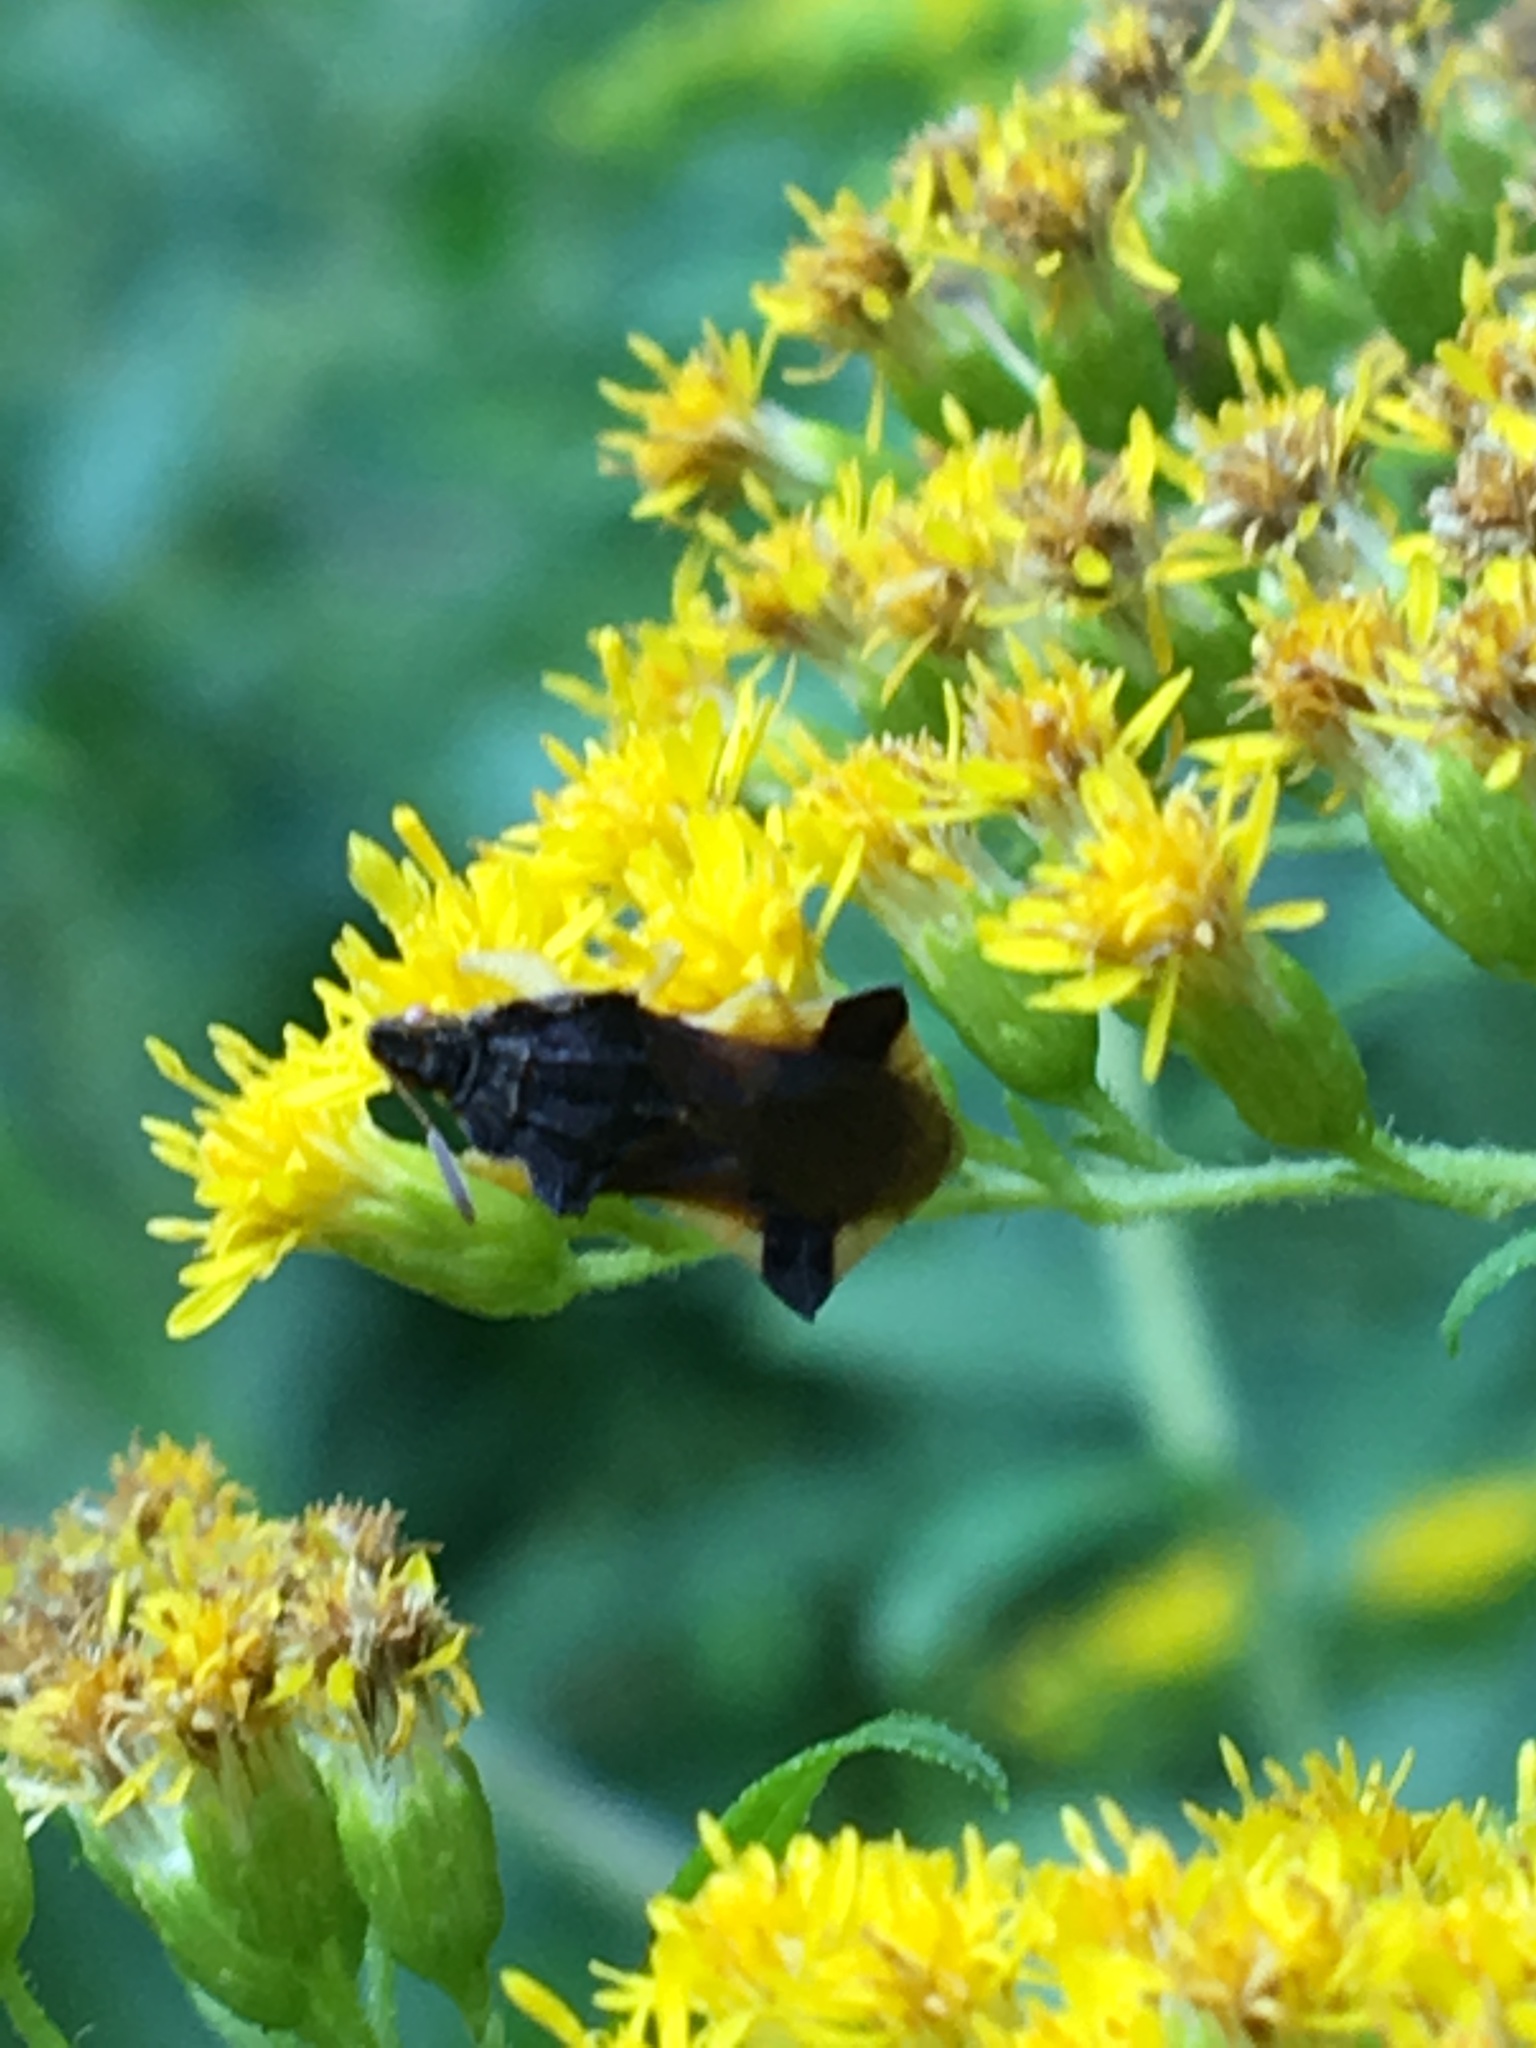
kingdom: Animalia
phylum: Arthropoda
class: Insecta
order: Hemiptera
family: Reduviidae
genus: Phymata
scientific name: Phymata pennsylvanica
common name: Pennsylvania ambush bug
